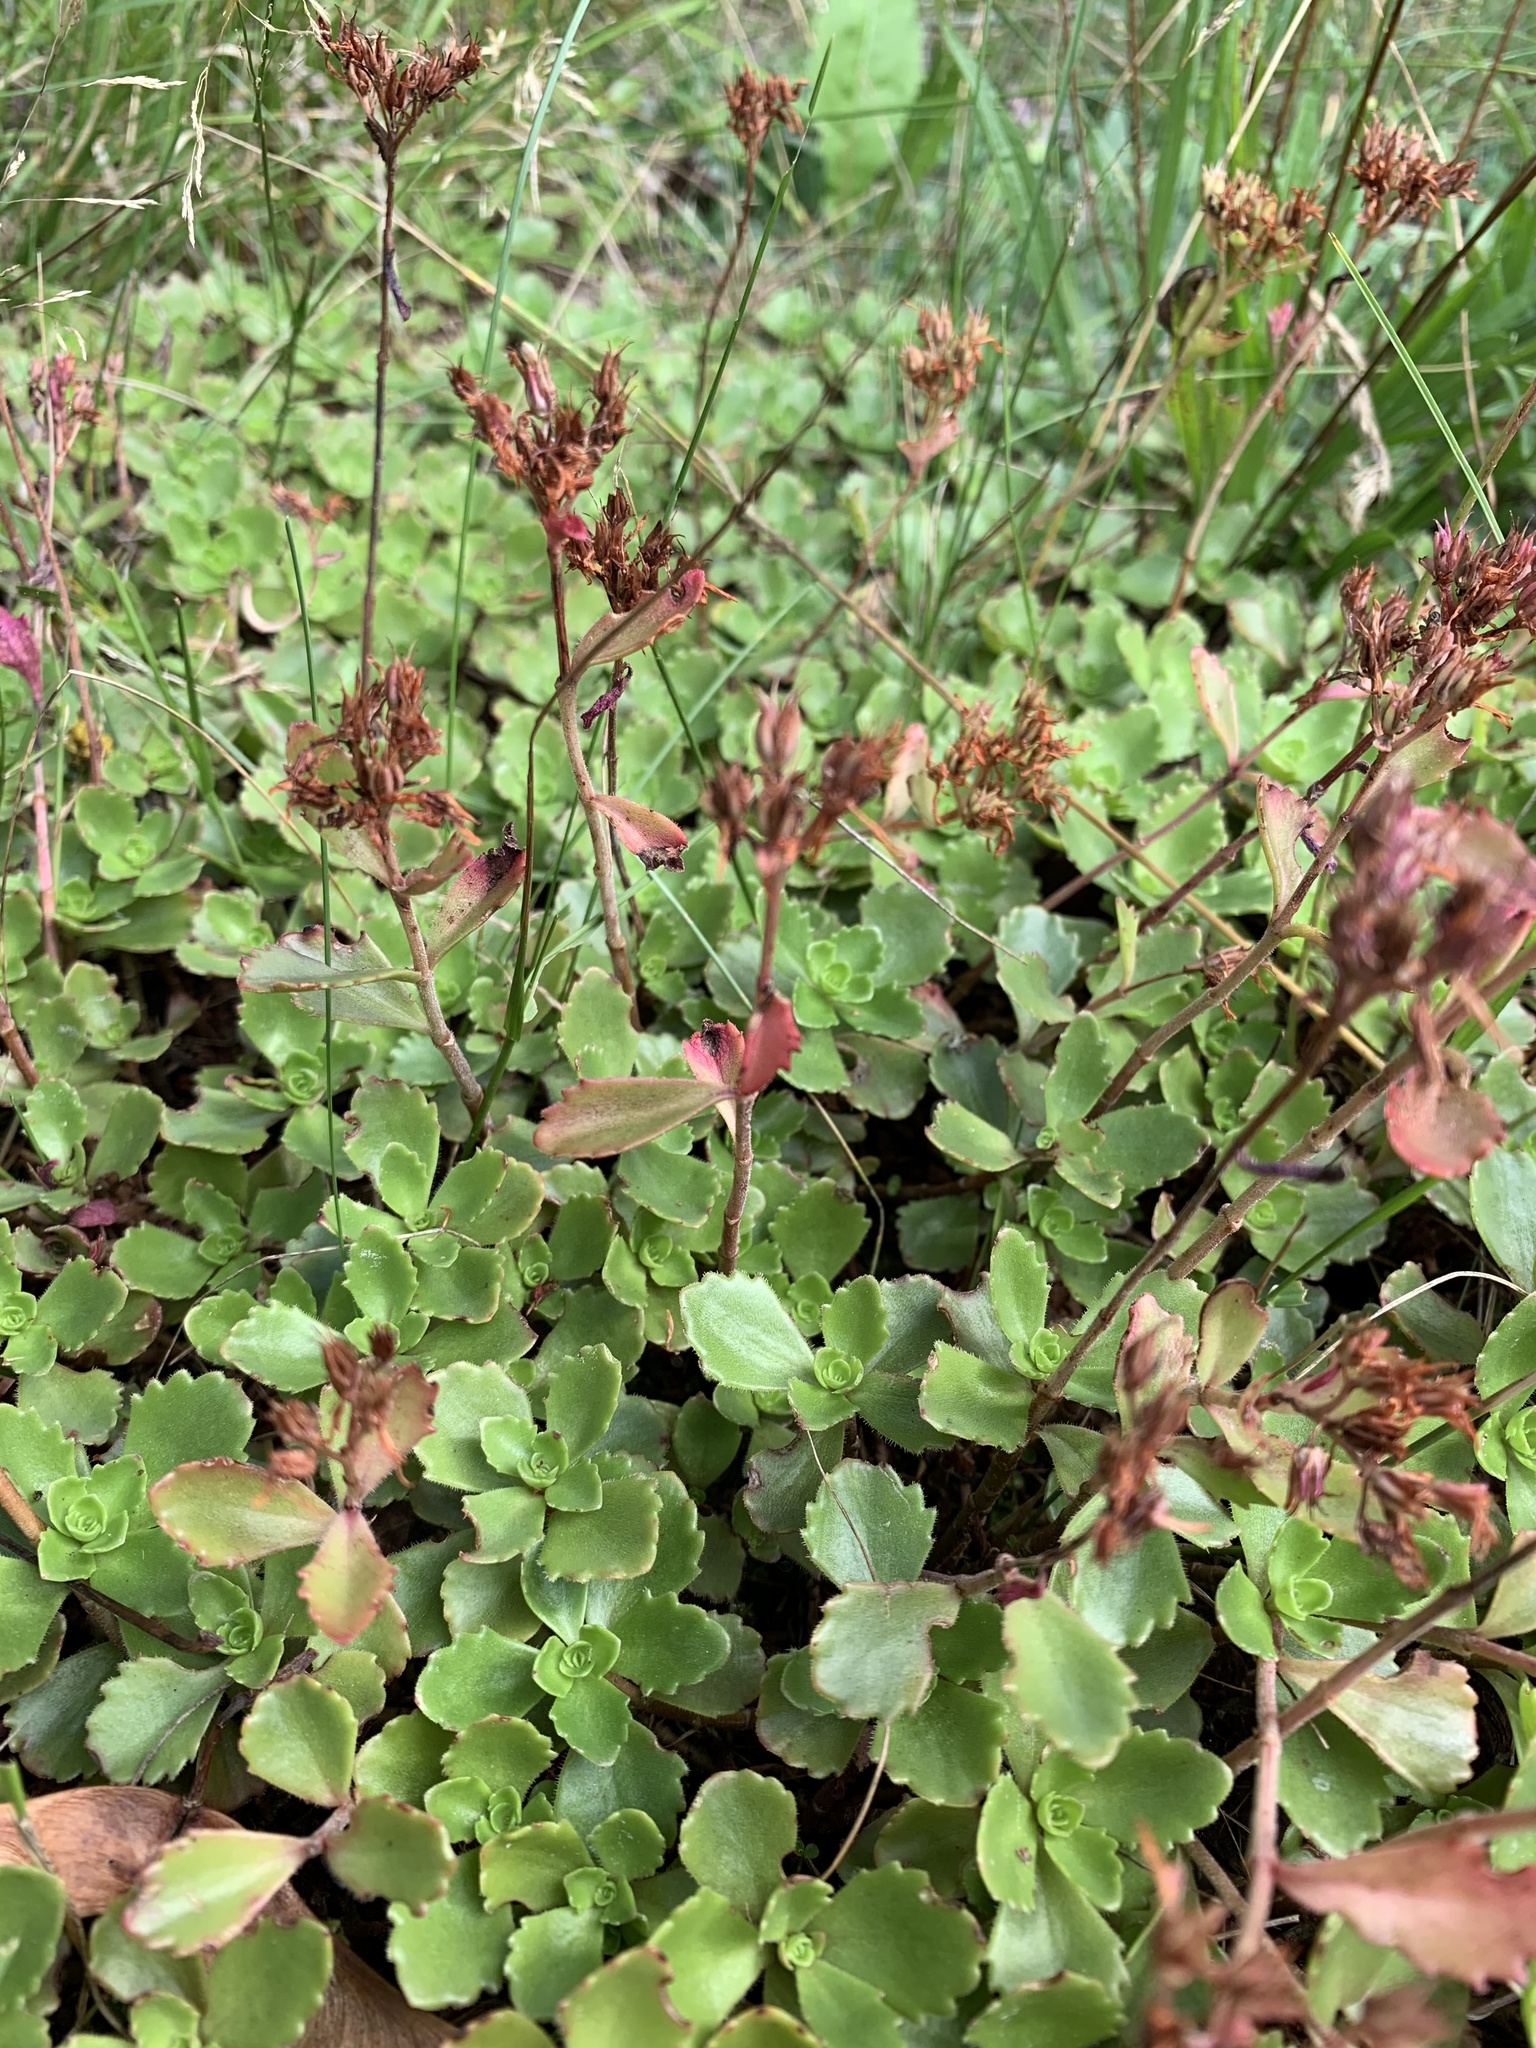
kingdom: Plantae
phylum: Tracheophyta
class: Magnoliopsida
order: Saxifragales
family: Crassulaceae
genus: Phedimus
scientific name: Phedimus spurius
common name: Caucasian stonecrop
